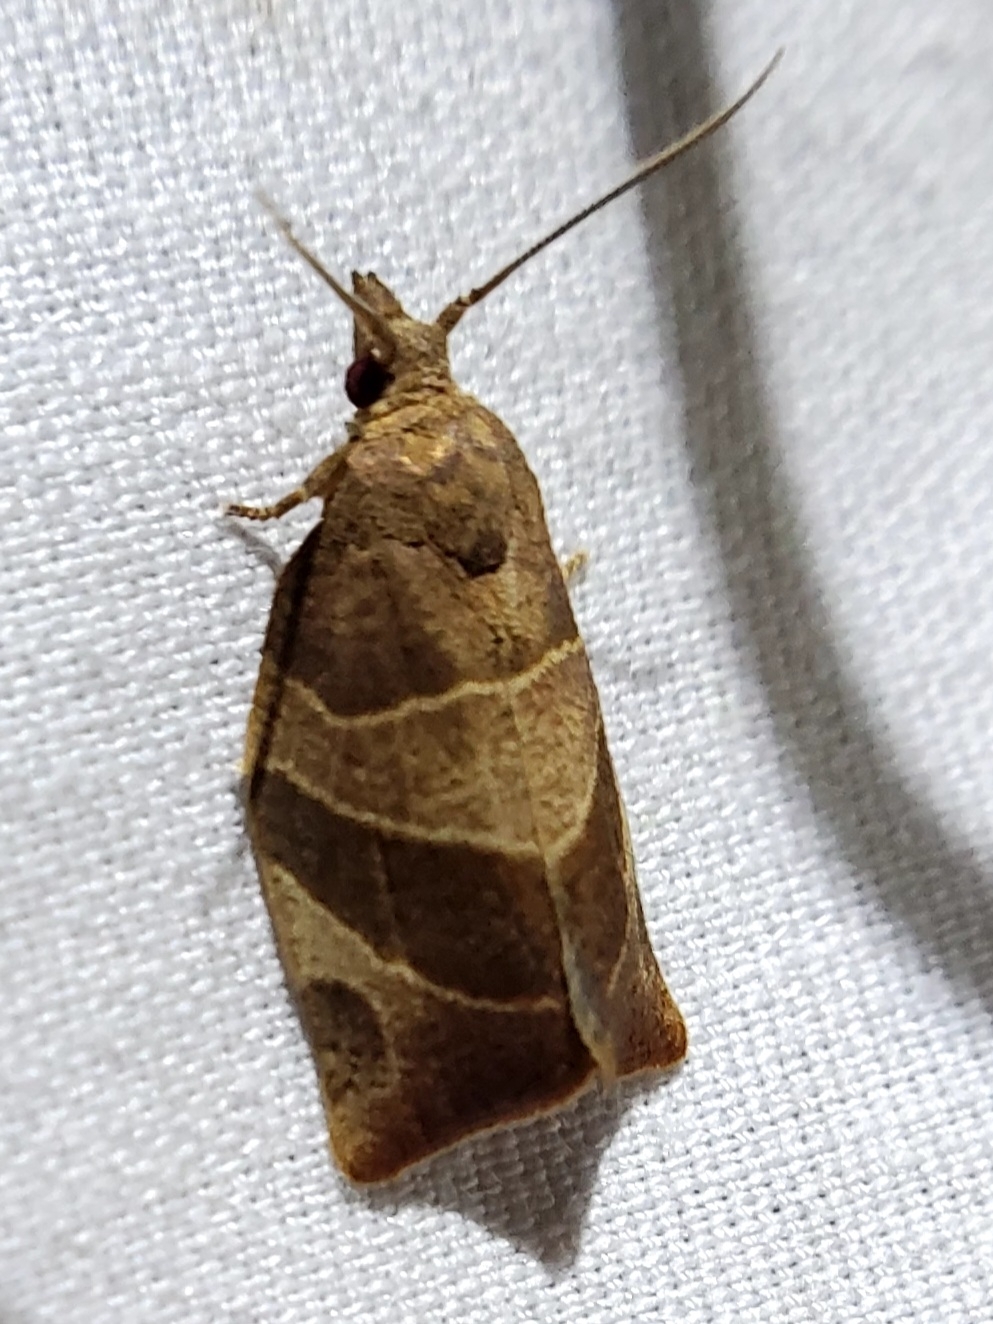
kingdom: Animalia
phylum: Arthropoda
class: Insecta
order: Lepidoptera
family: Tortricidae
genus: Pandemis
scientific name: Pandemis limitata
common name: Three-lined leafroller moth
